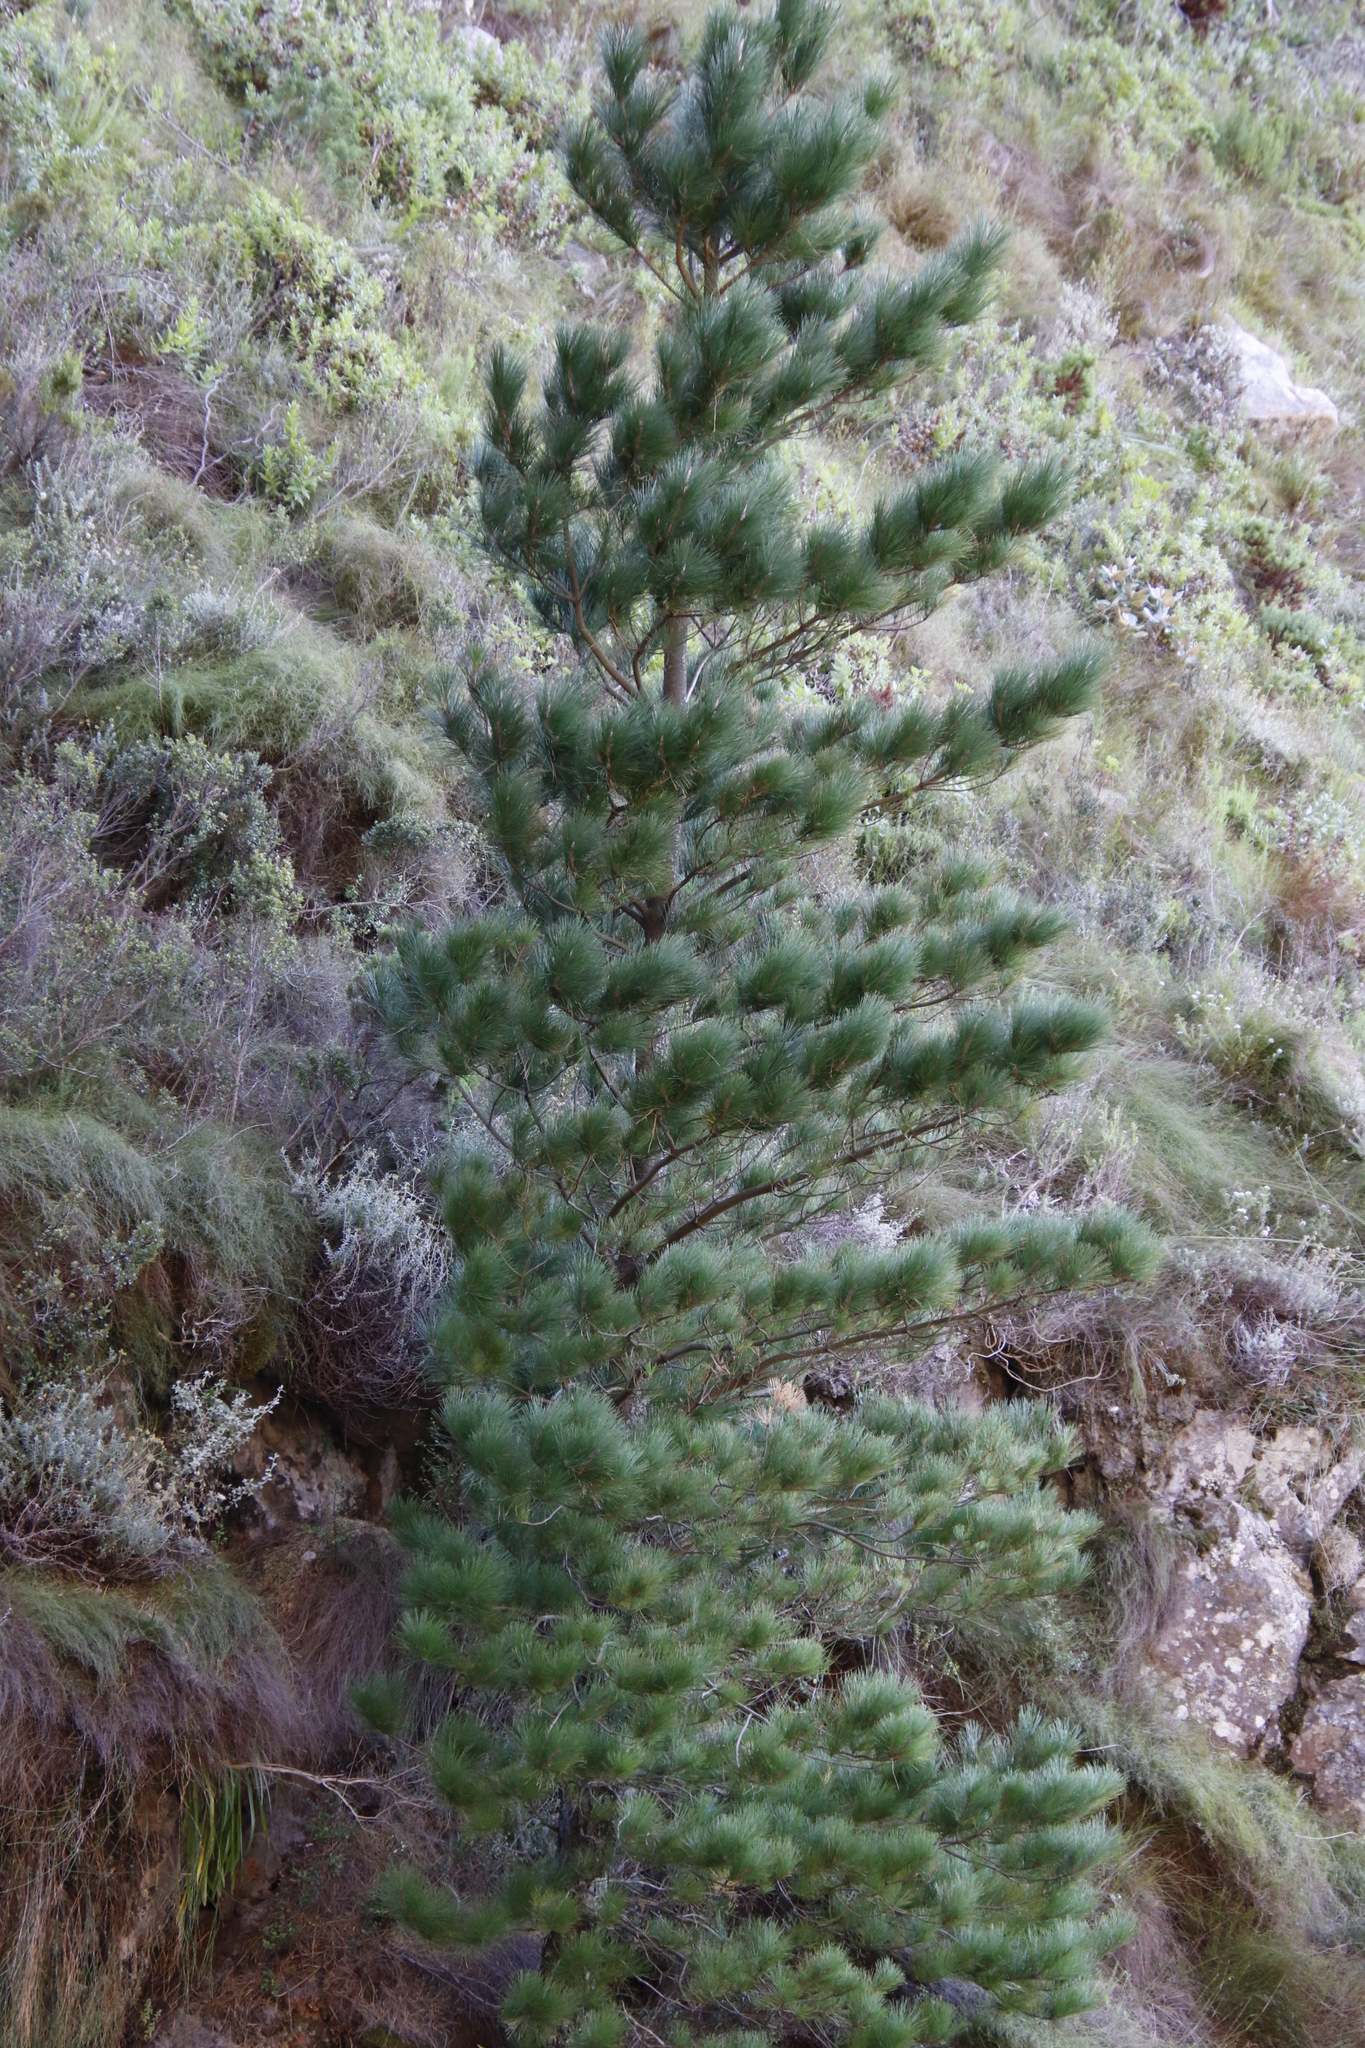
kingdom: Plantae
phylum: Tracheophyta
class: Pinopsida
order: Pinales
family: Pinaceae
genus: Pinus
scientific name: Pinus radiata
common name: Monterey pine
